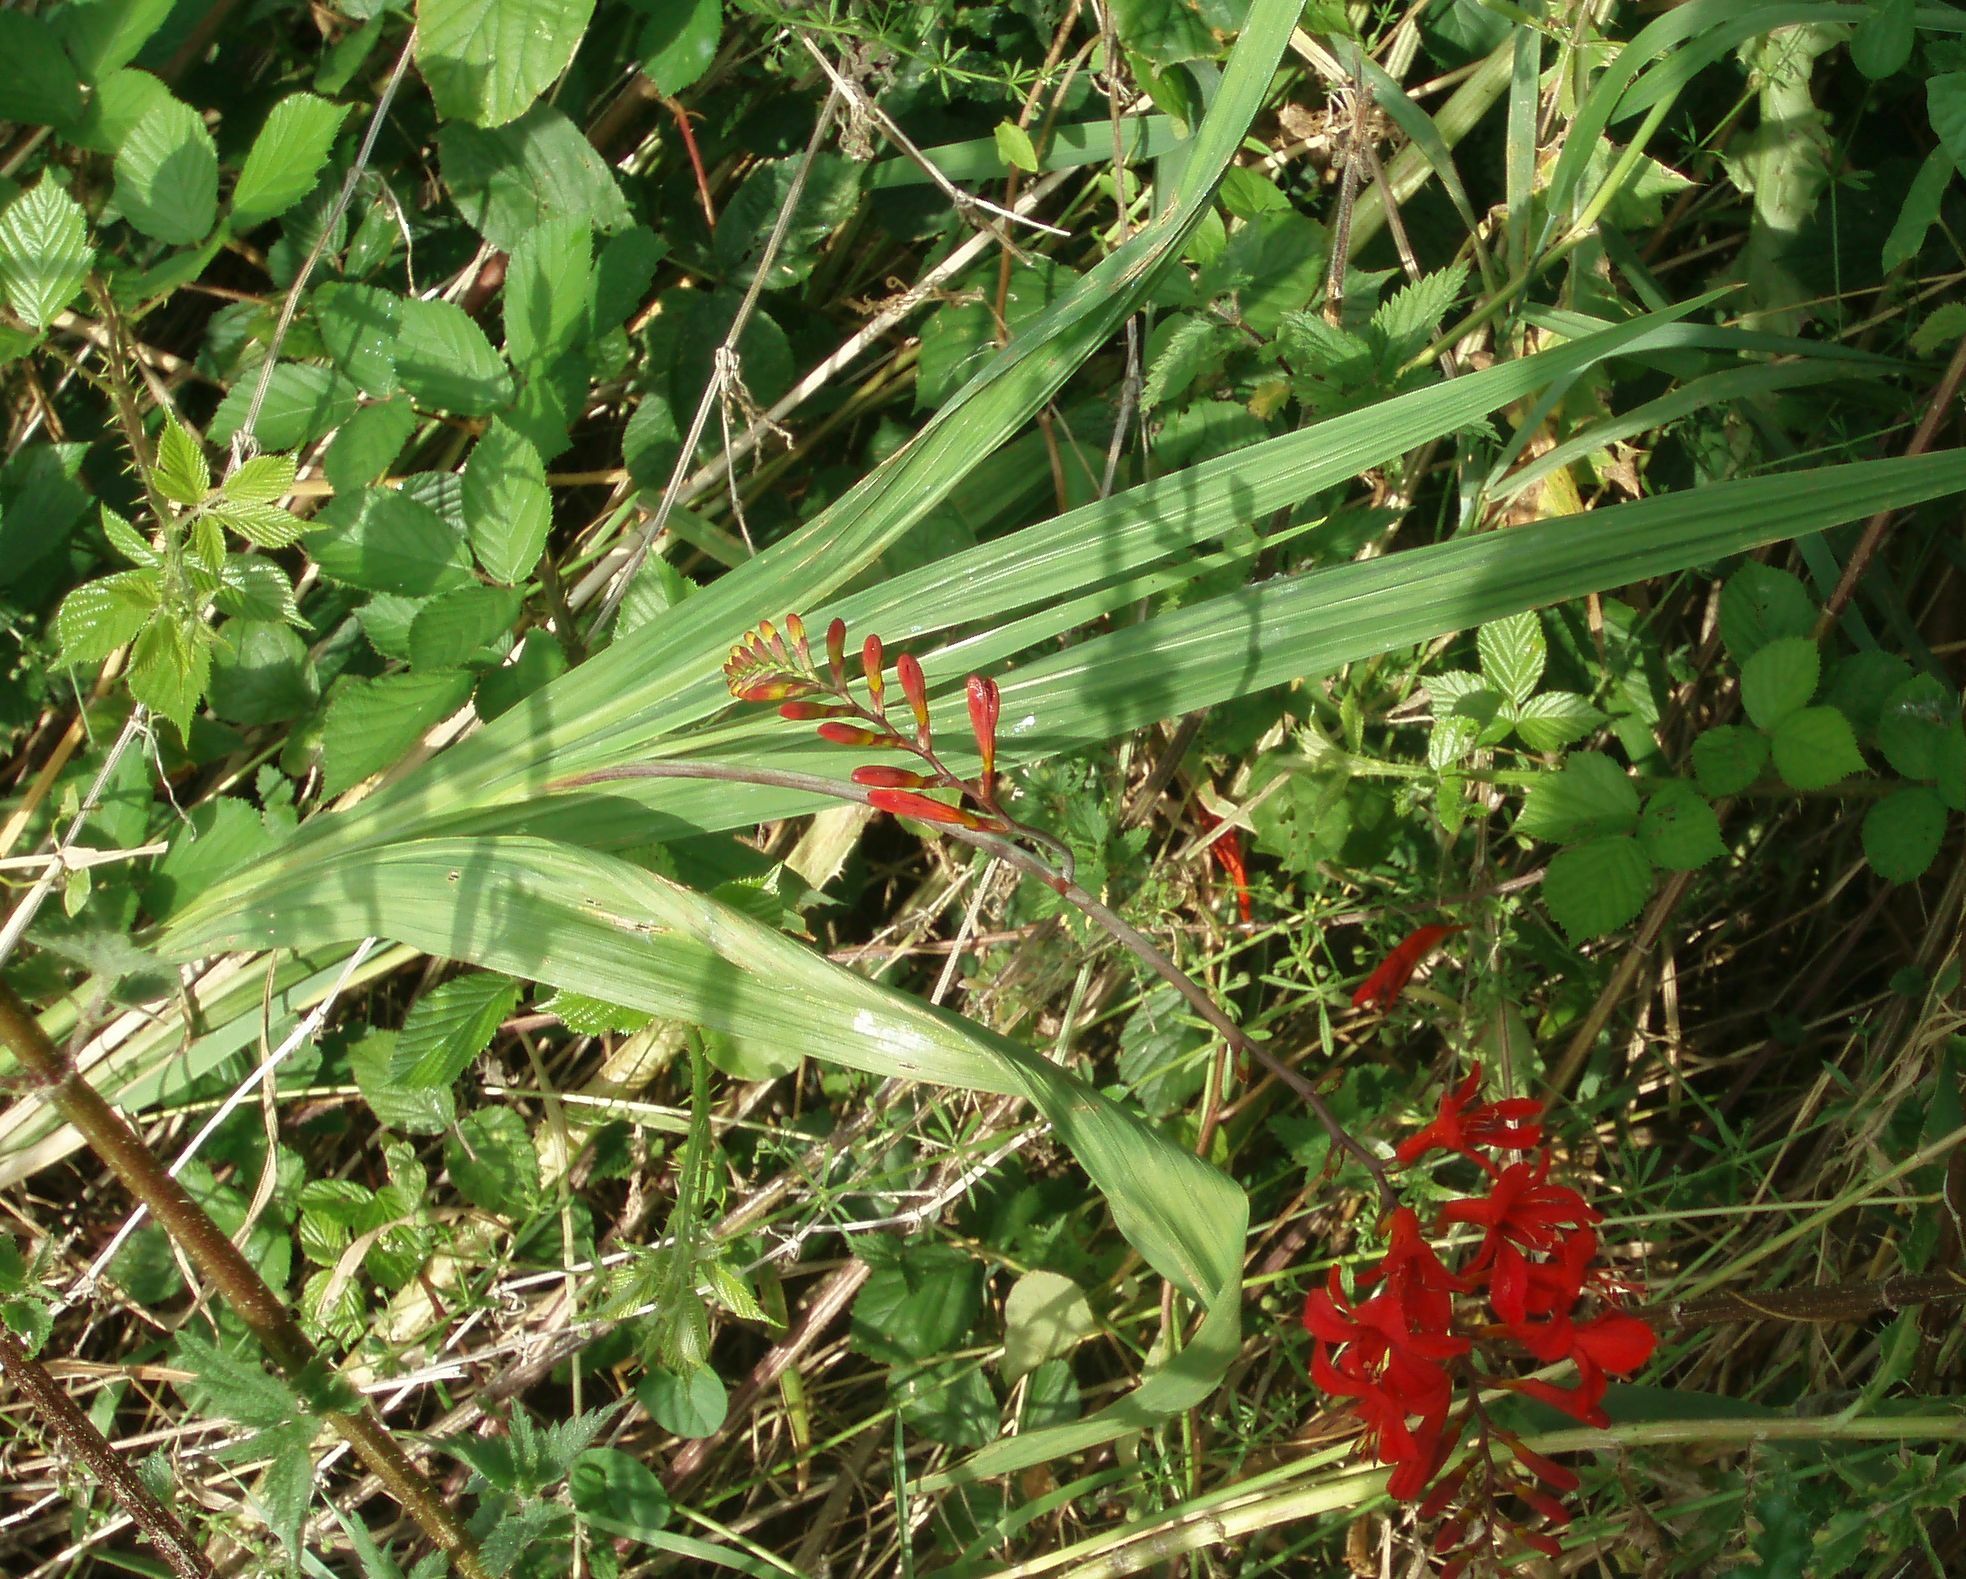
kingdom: Plantae
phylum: Tracheophyta
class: Liliopsida
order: Asparagales
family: Iridaceae
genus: Crocosmia
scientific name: Crocosmia
